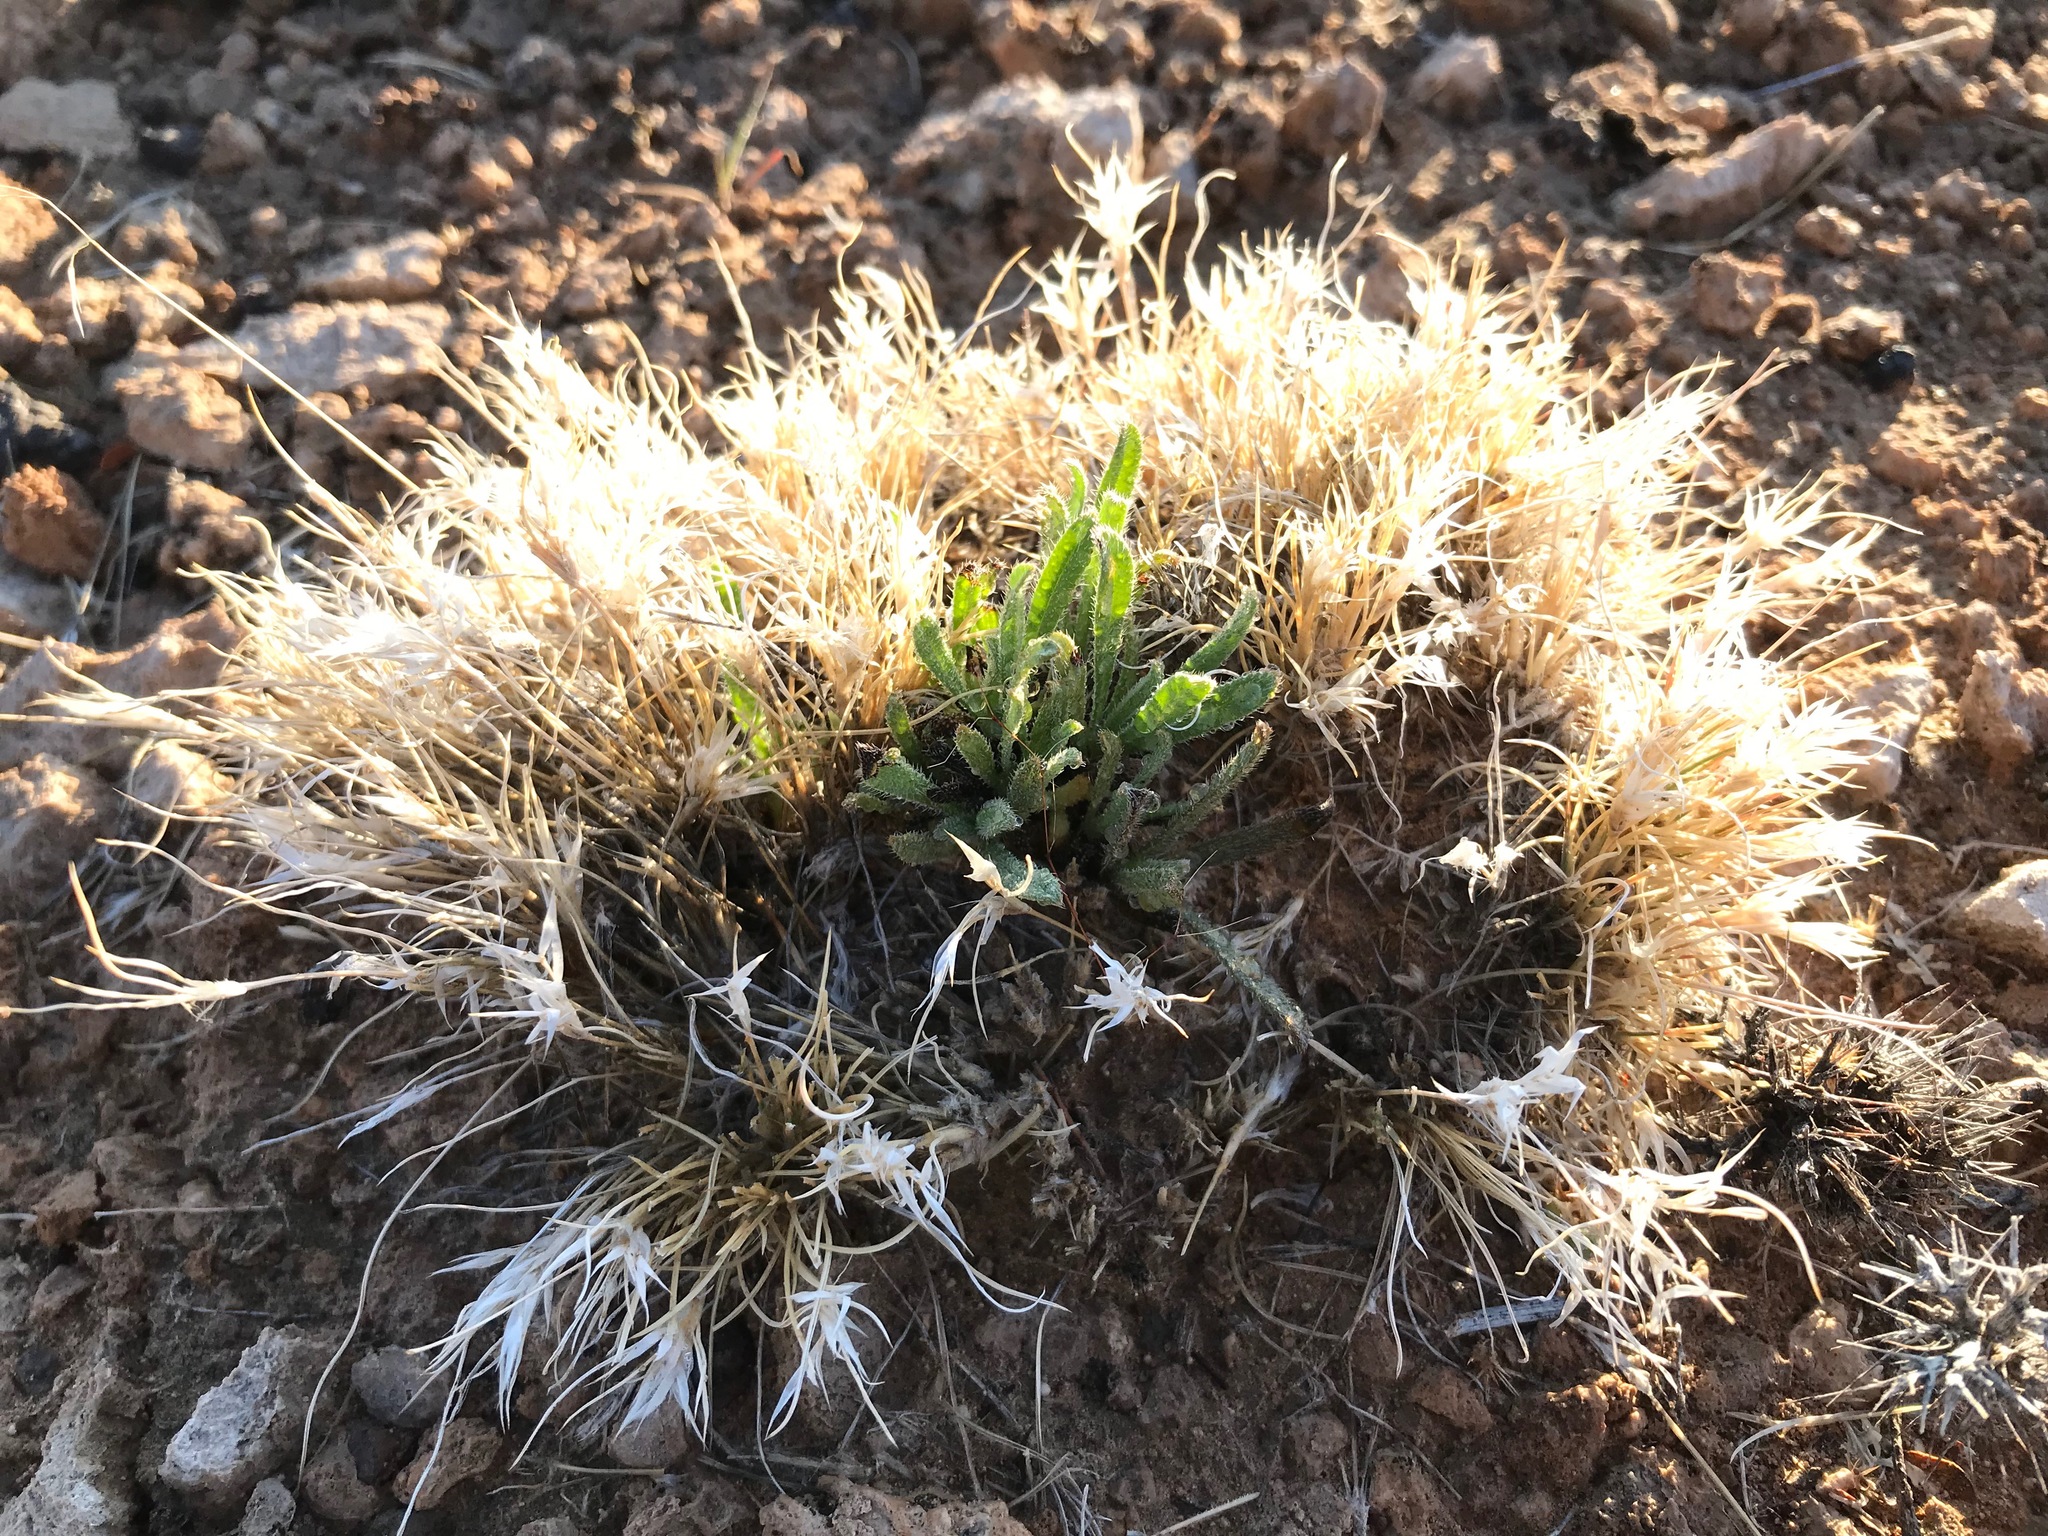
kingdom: Plantae
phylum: Tracheophyta
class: Liliopsida
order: Poales
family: Poaceae
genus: Dasyochloa
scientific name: Dasyochloa pulchella
